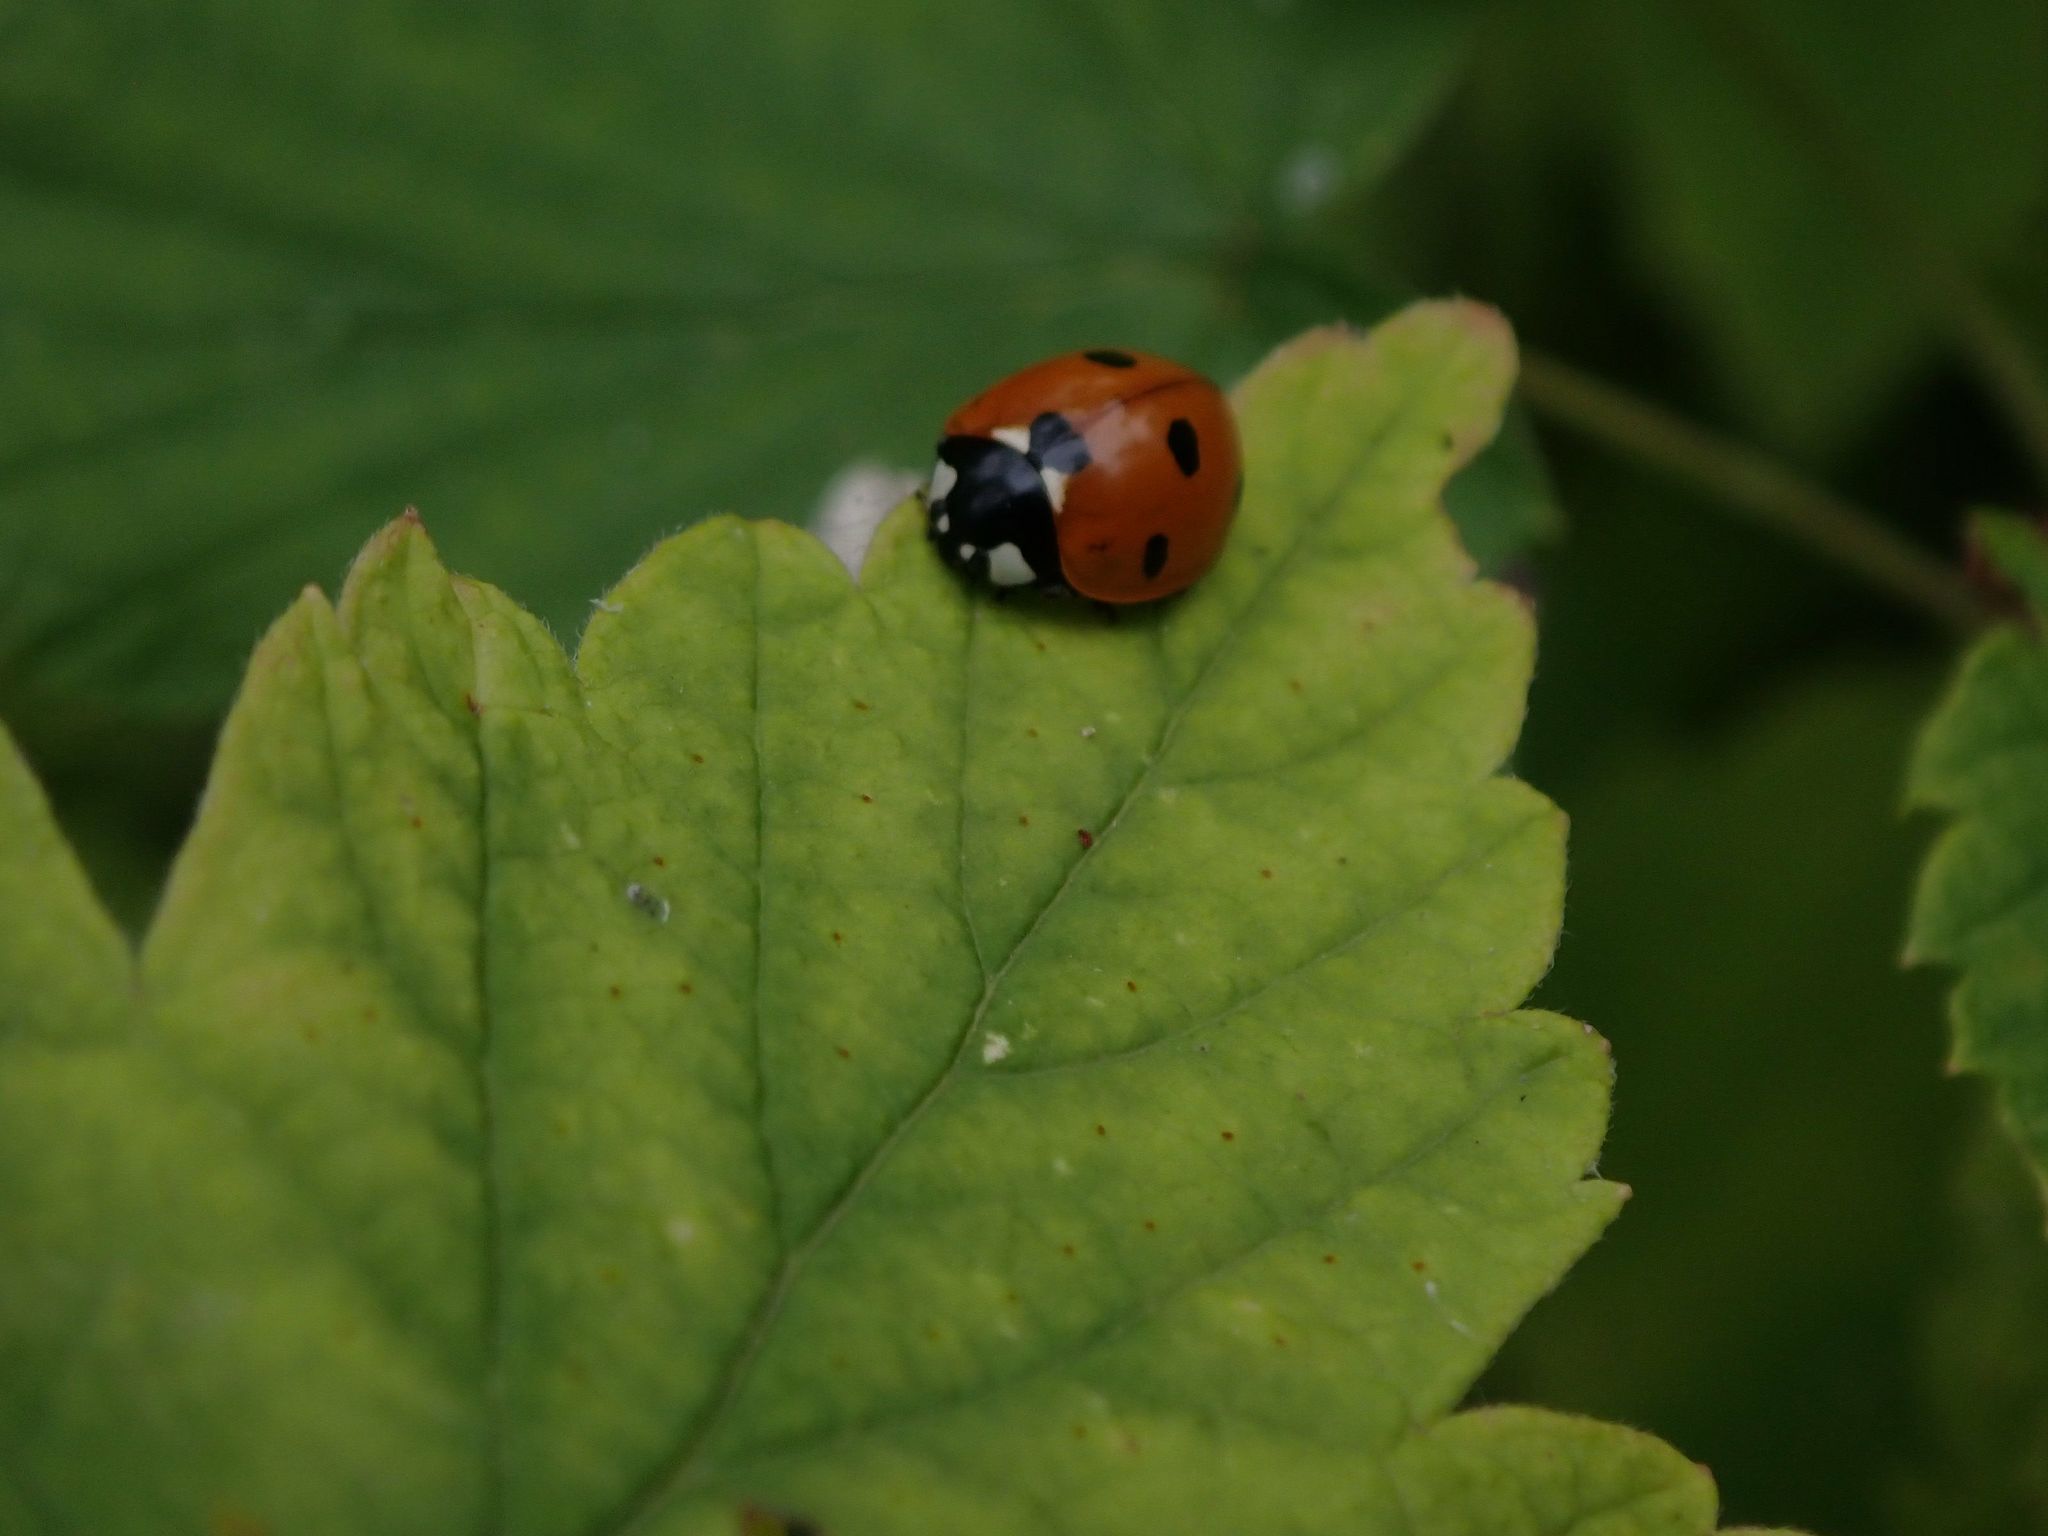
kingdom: Animalia
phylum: Arthropoda
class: Insecta
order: Coleoptera
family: Coccinellidae
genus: Coccinella
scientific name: Coccinella septempunctata
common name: Sevenspotted lady beetle
